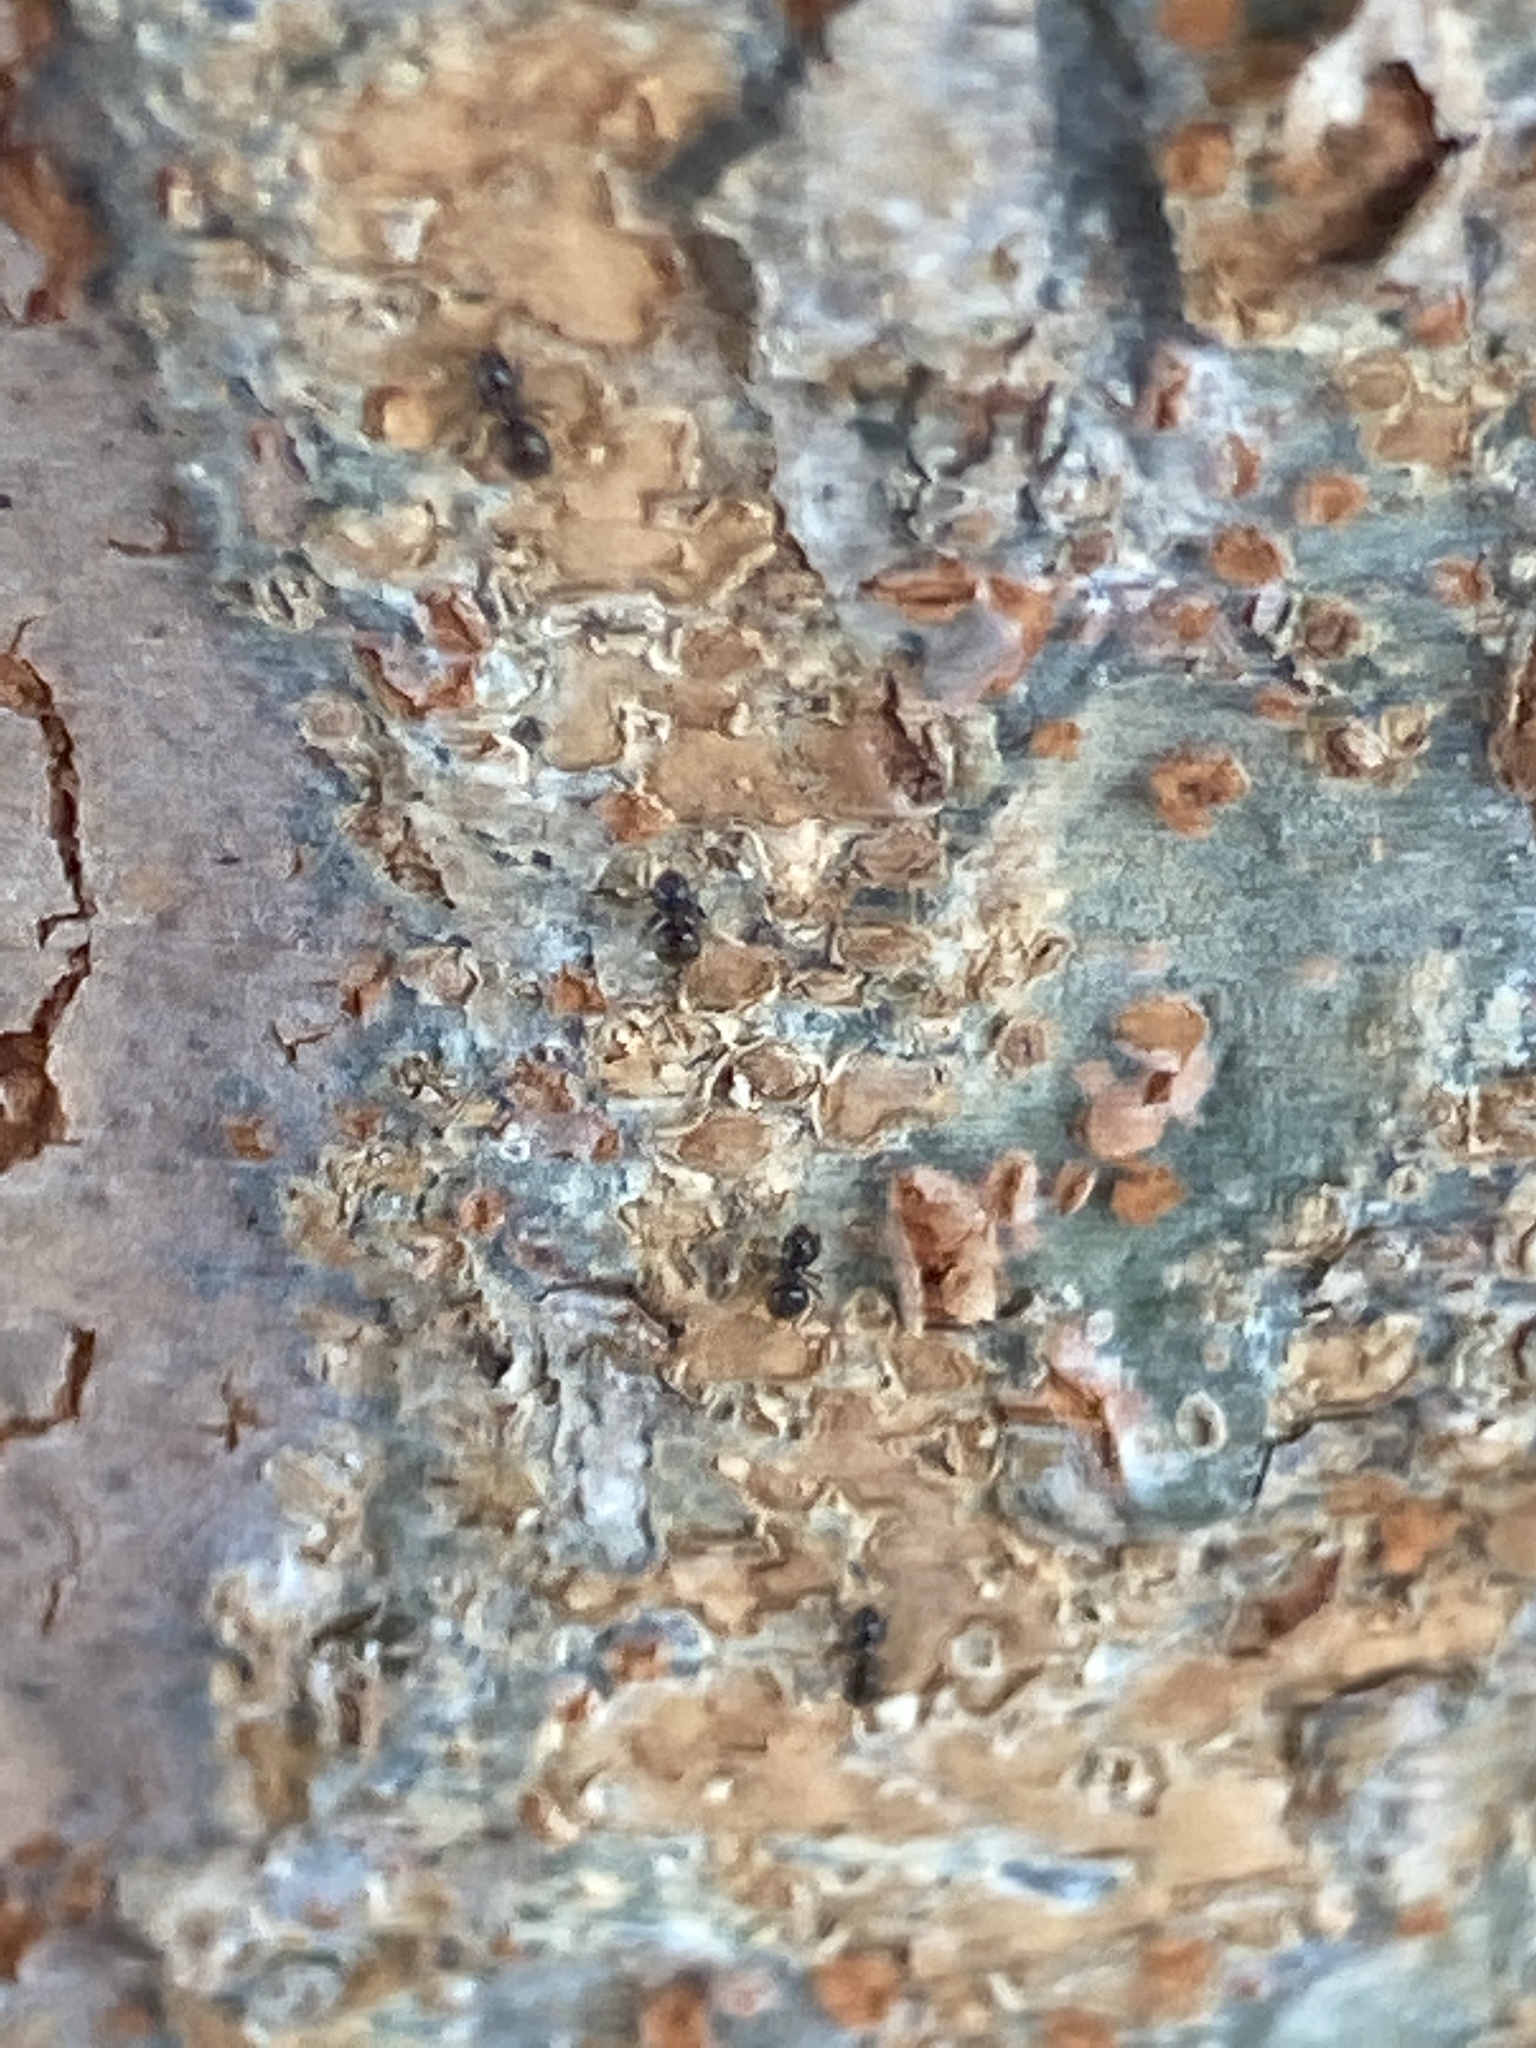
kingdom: Animalia
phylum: Arthropoda
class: Insecta
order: Hymenoptera
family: Formicidae
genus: Brachymyrmex
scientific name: Brachymyrmex patagonicus
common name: Dark rover ant
